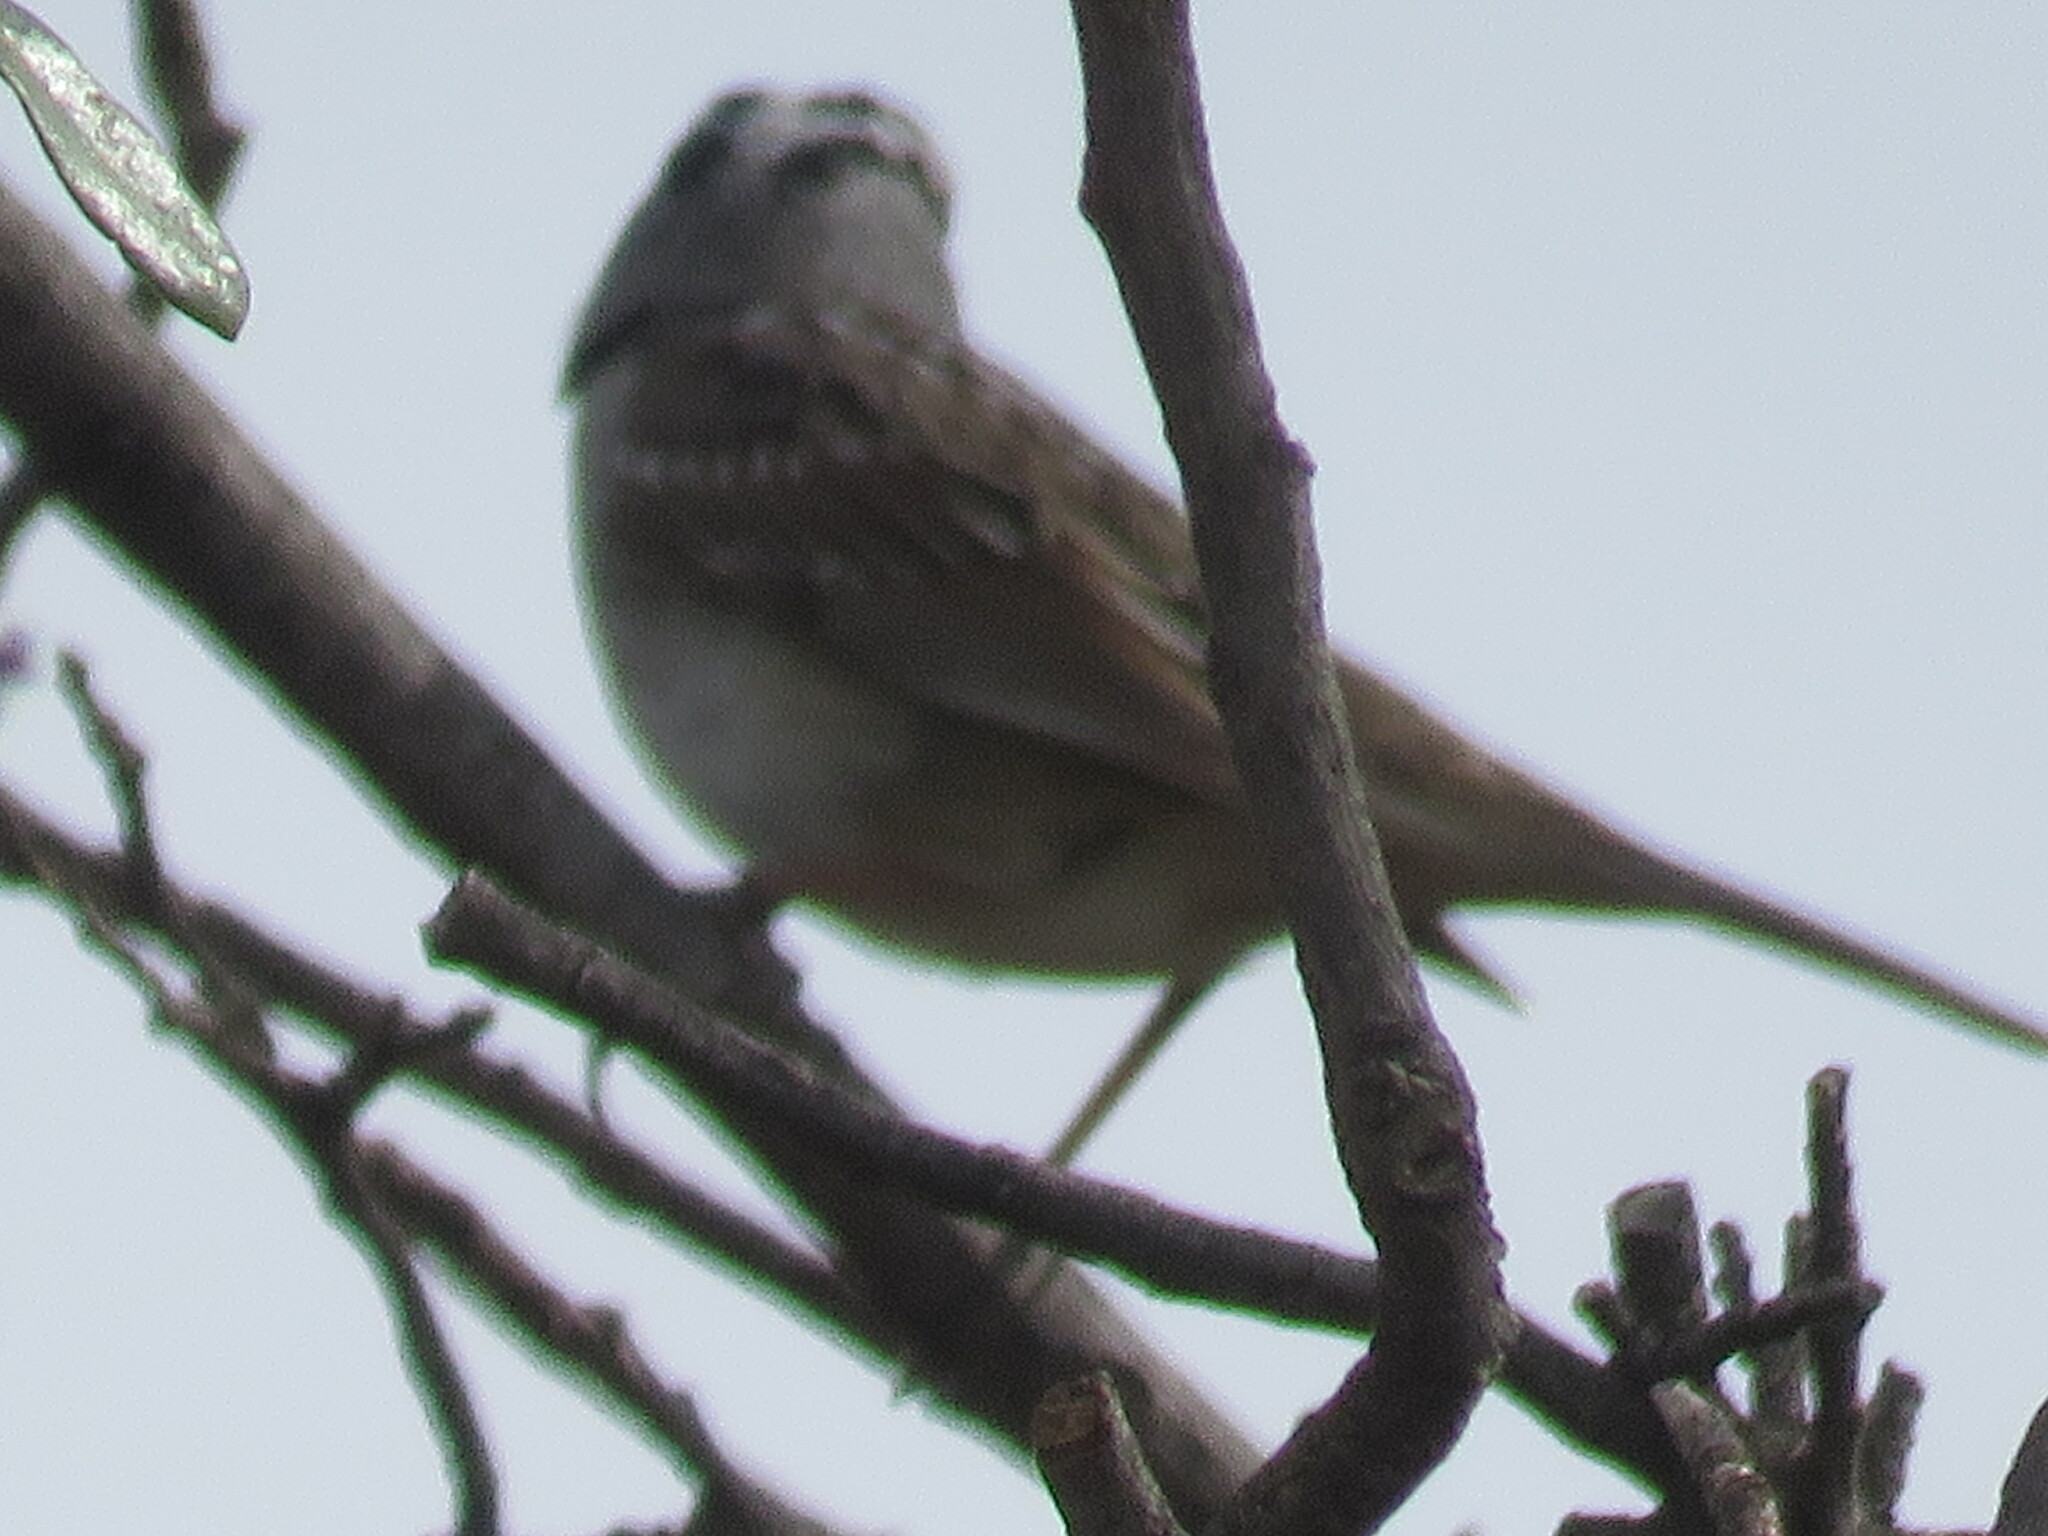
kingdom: Animalia
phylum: Chordata
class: Aves
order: Passeriformes
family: Passerellidae
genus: Zonotrichia
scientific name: Zonotrichia leucophrys
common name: White-crowned sparrow
